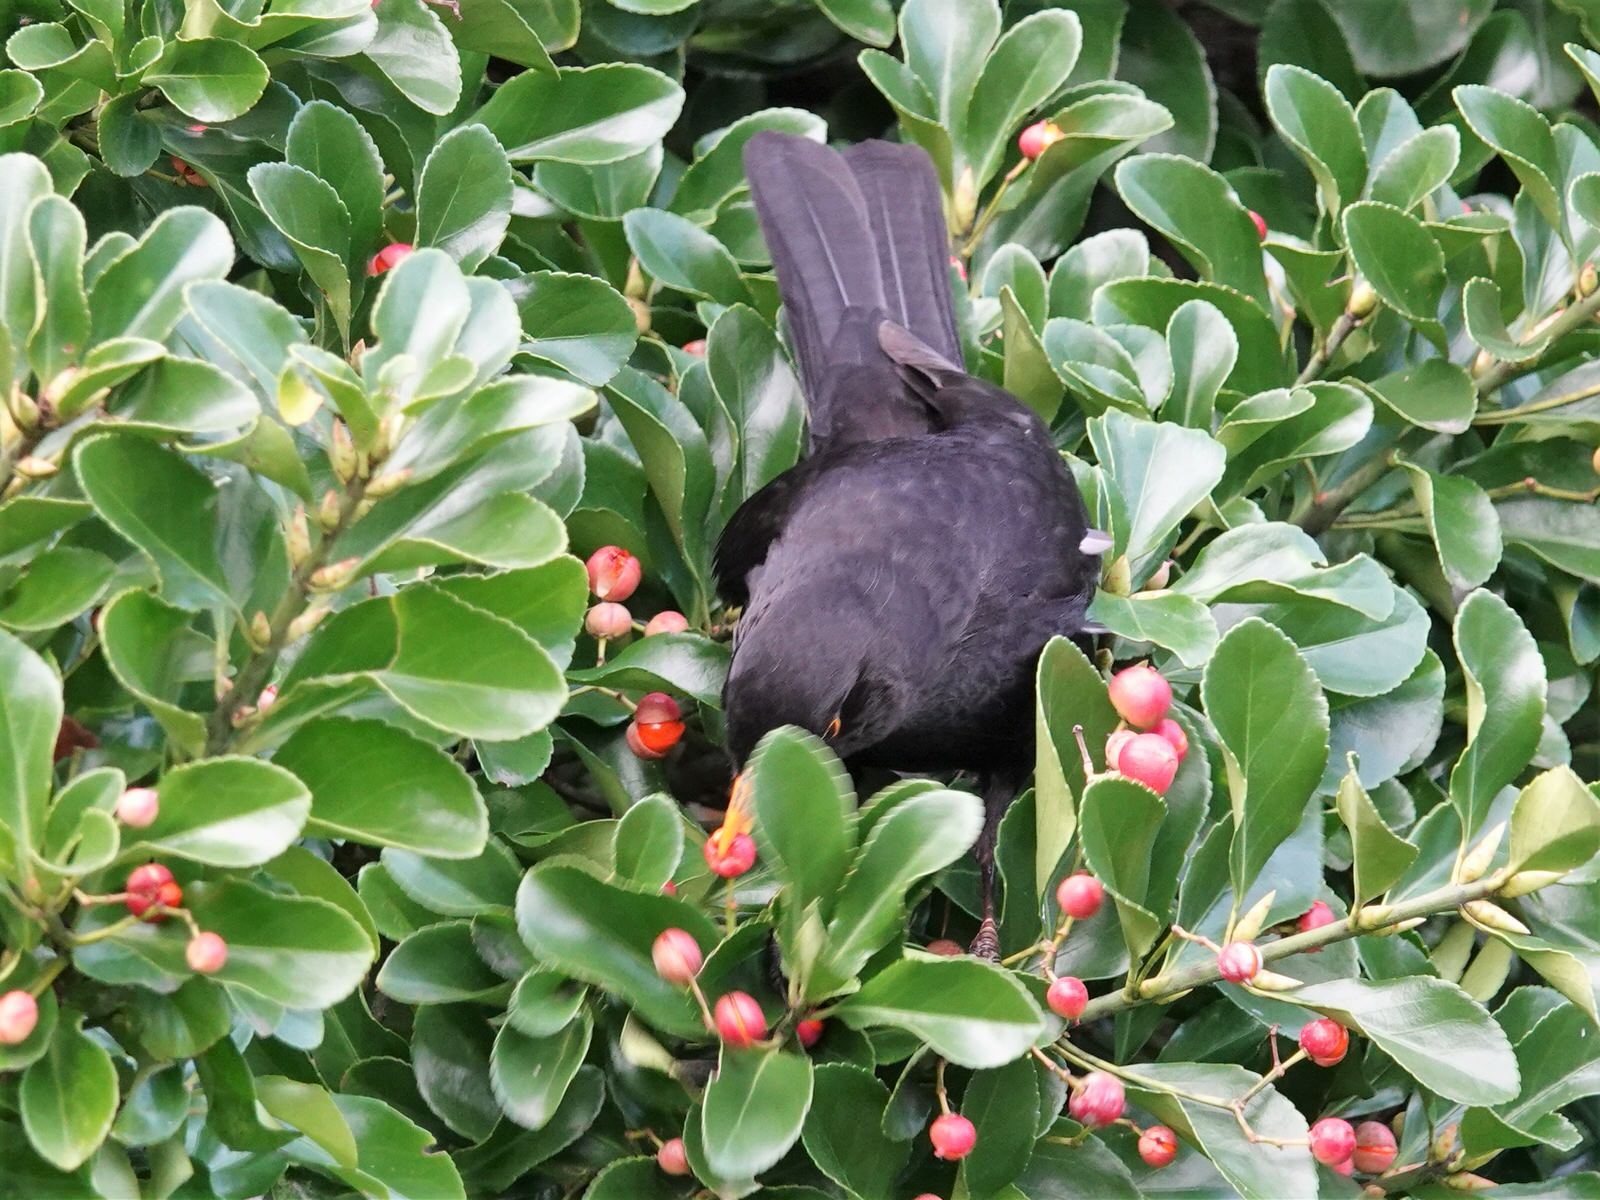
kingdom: Animalia
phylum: Chordata
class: Aves
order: Passeriformes
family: Turdidae
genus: Turdus
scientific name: Turdus merula
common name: Common blackbird
